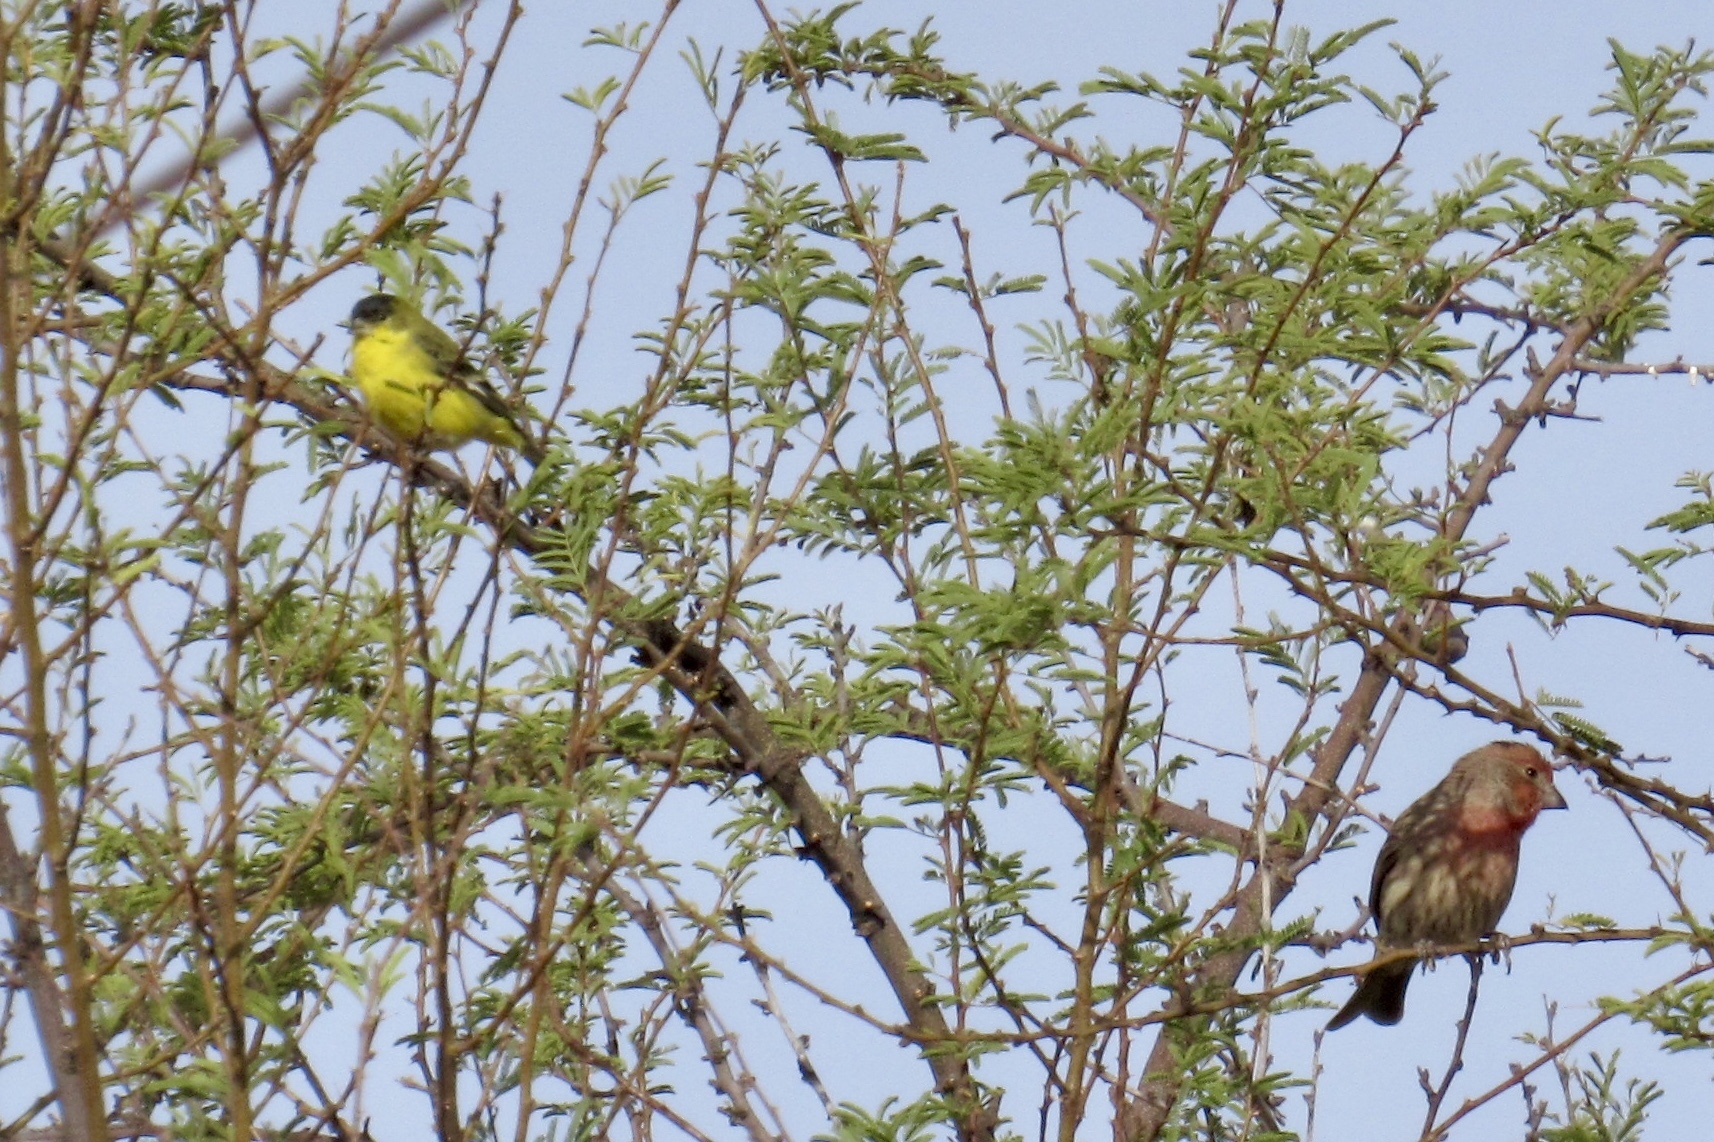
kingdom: Animalia
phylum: Chordata
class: Aves
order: Passeriformes
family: Fringillidae
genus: Spinus
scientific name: Spinus psaltria
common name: Lesser goldfinch
